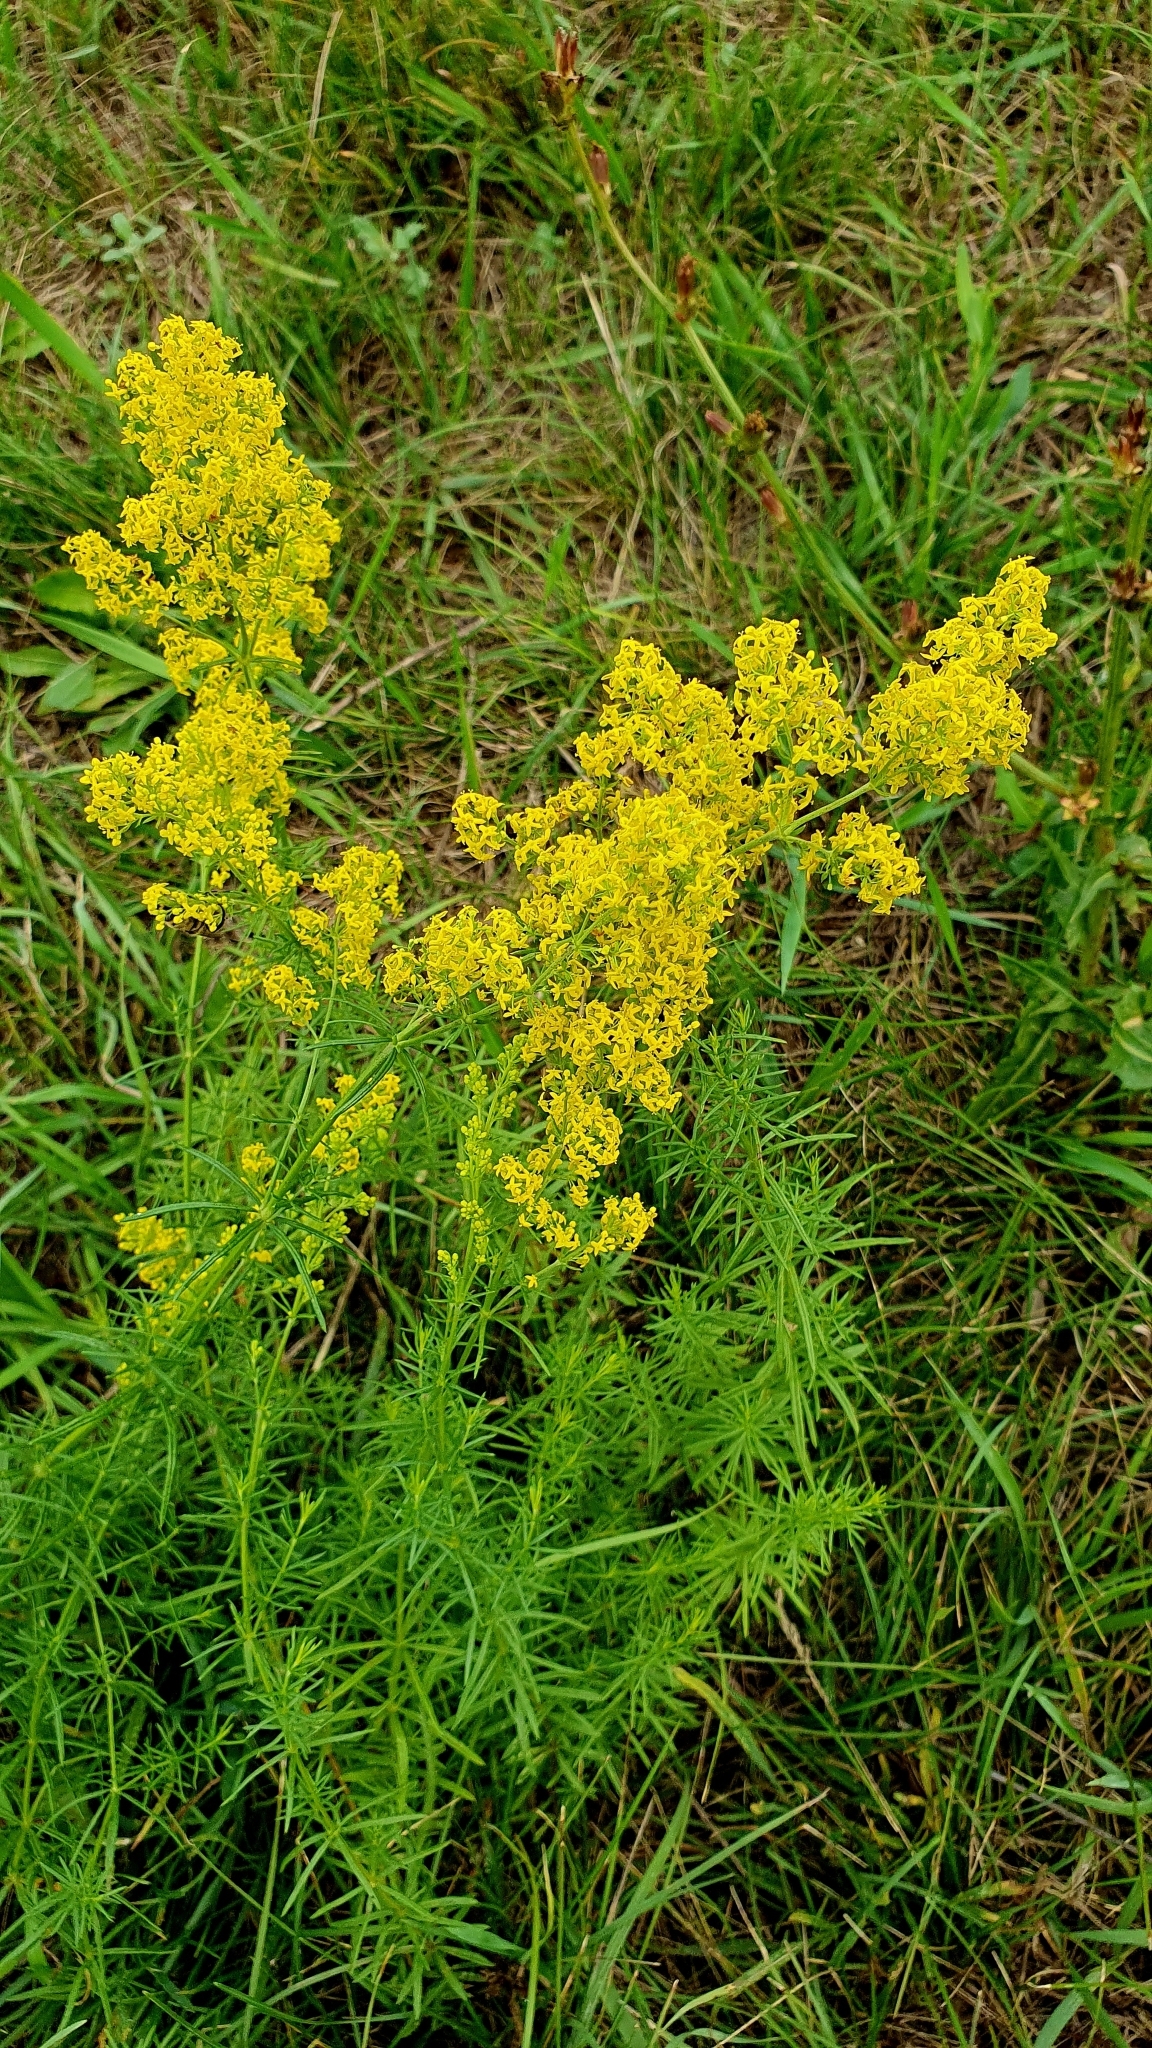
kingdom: Plantae
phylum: Tracheophyta
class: Magnoliopsida
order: Gentianales
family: Rubiaceae
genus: Galium
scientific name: Galium verum
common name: Lady's bedstraw
